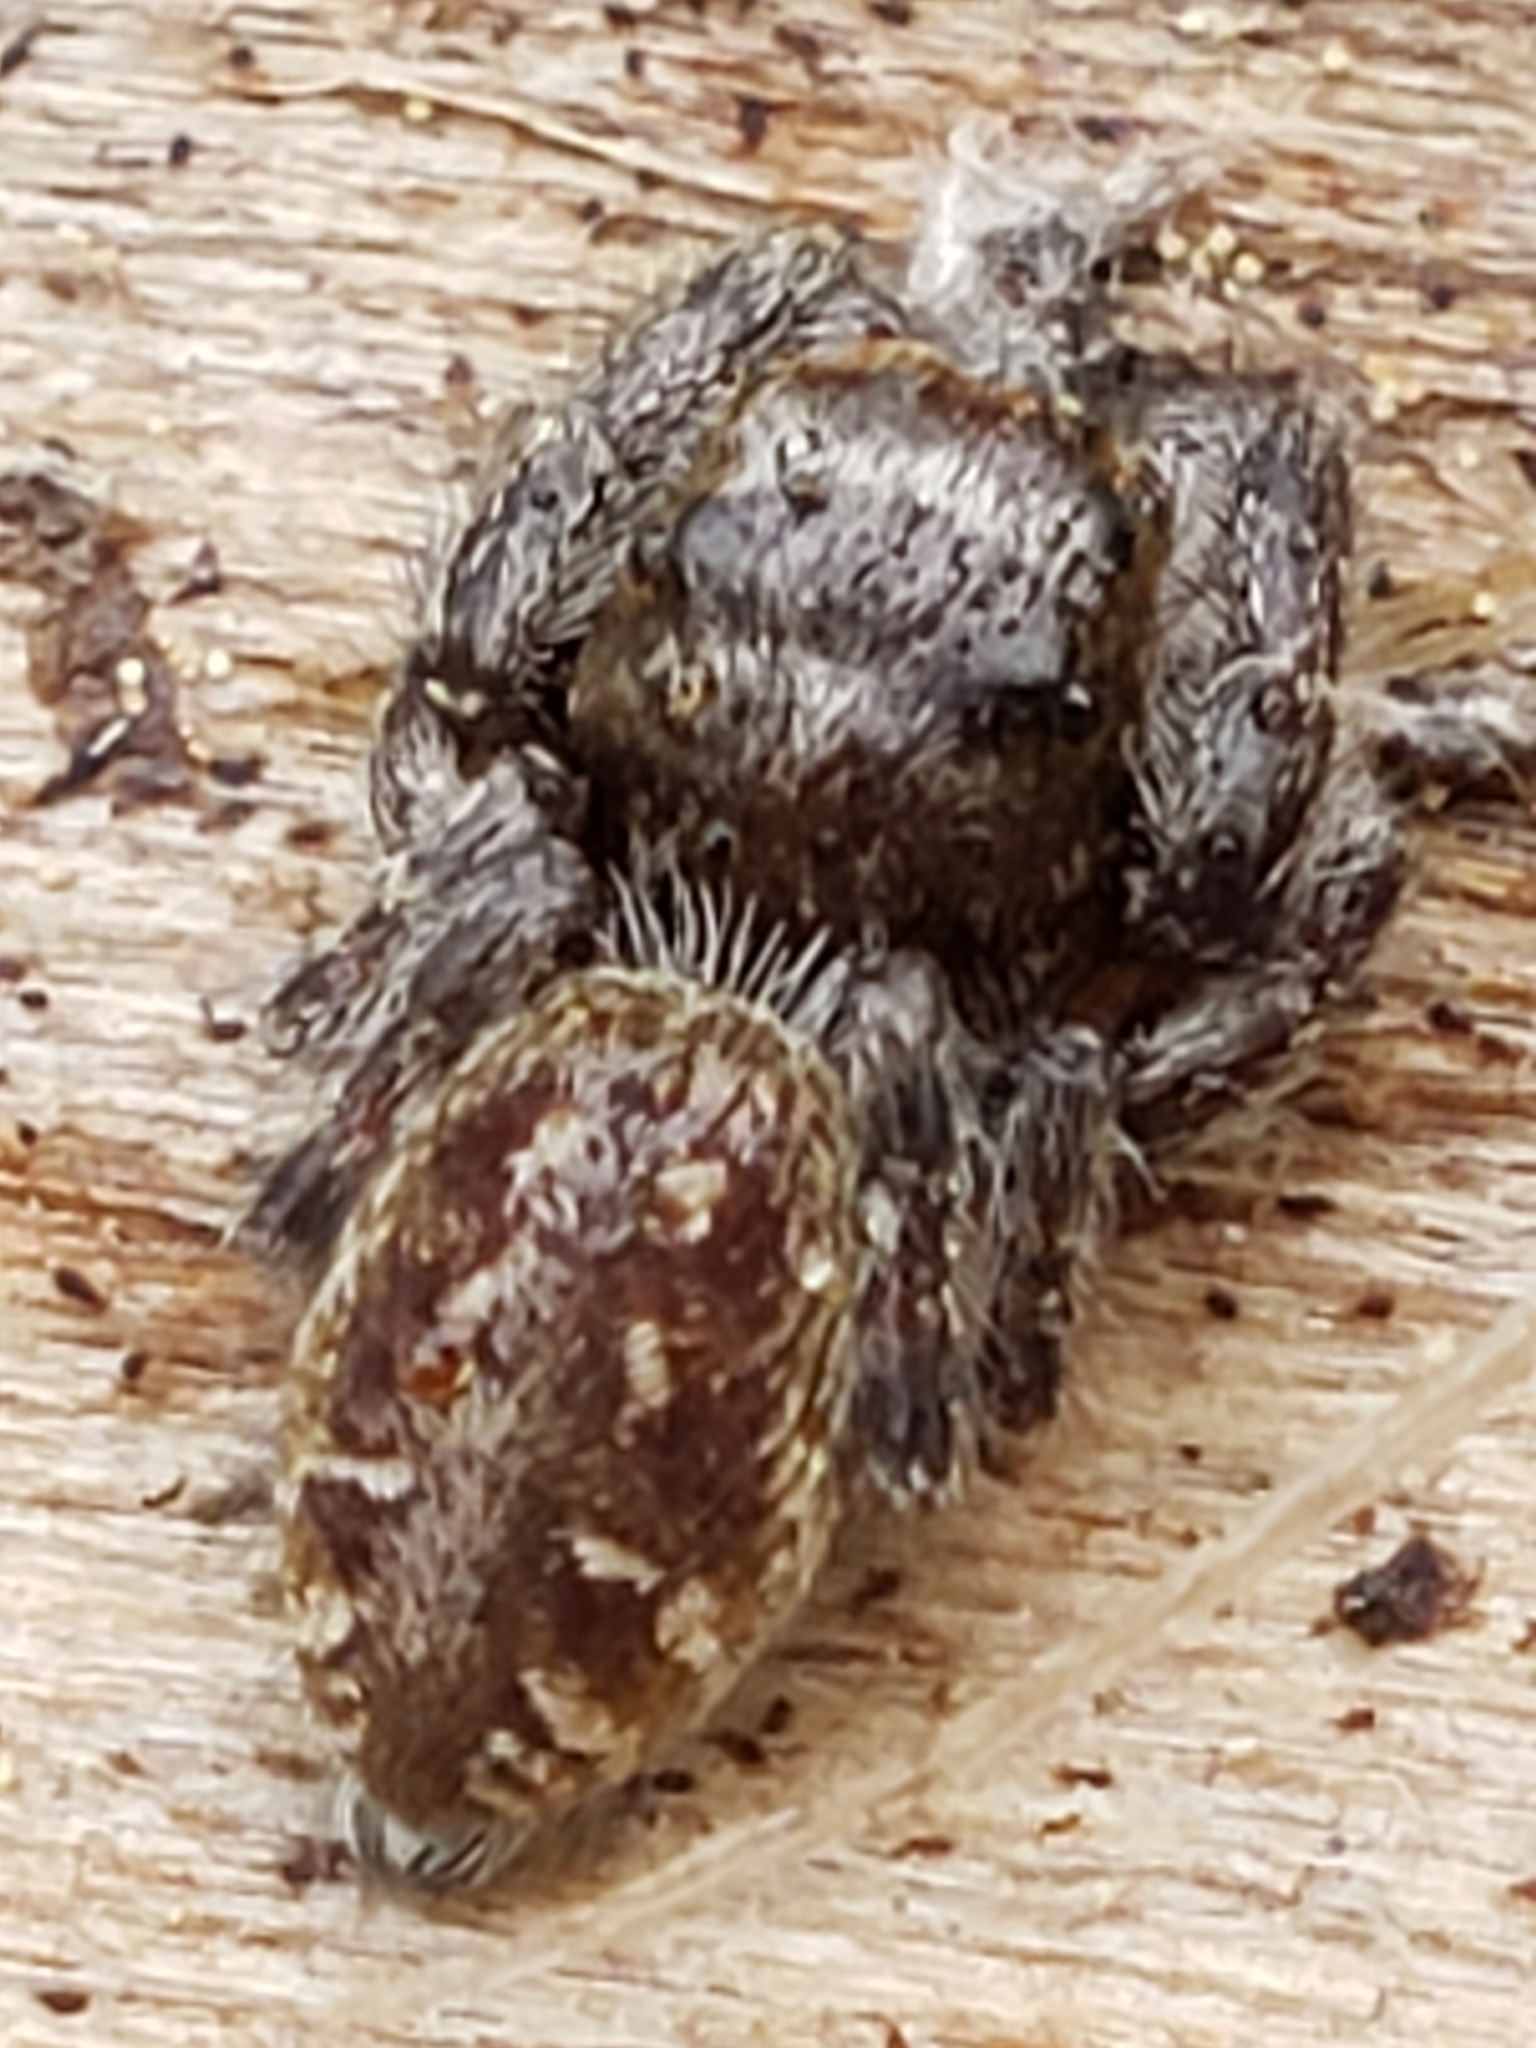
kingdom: Animalia
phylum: Arthropoda
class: Arachnida
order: Araneae
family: Salticidae
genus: Eris
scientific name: Eris militaris
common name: Bronze jumper
